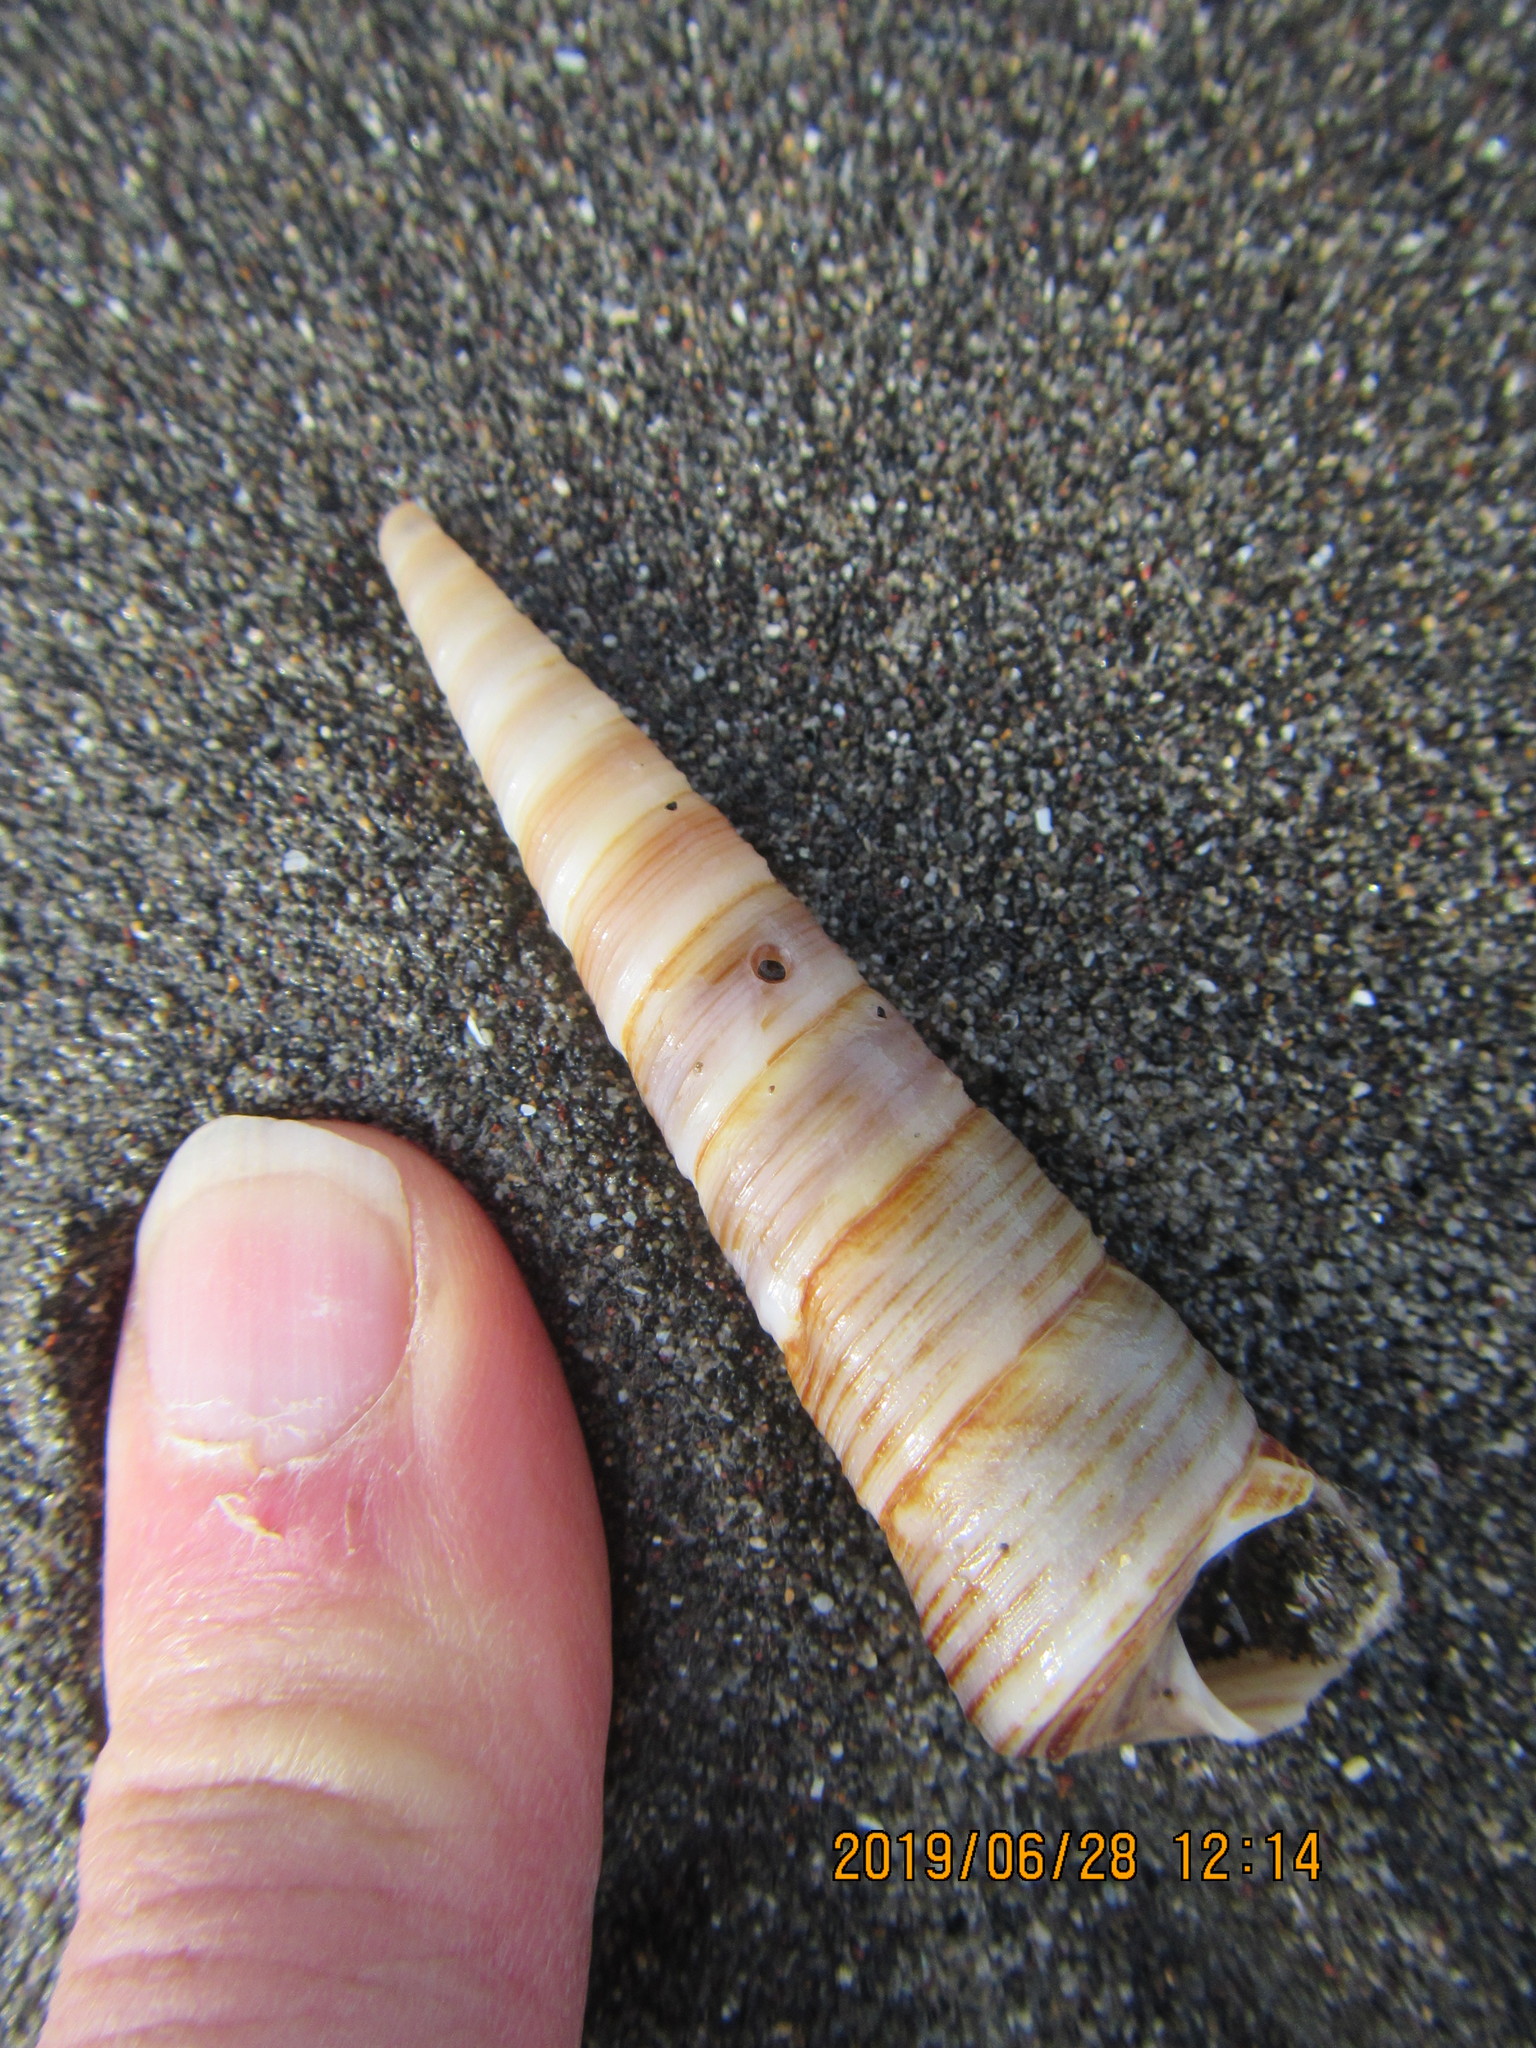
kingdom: Animalia
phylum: Mollusca
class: Gastropoda
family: Turritellidae
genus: Maoricolpus
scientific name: Maoricolpus roseus
